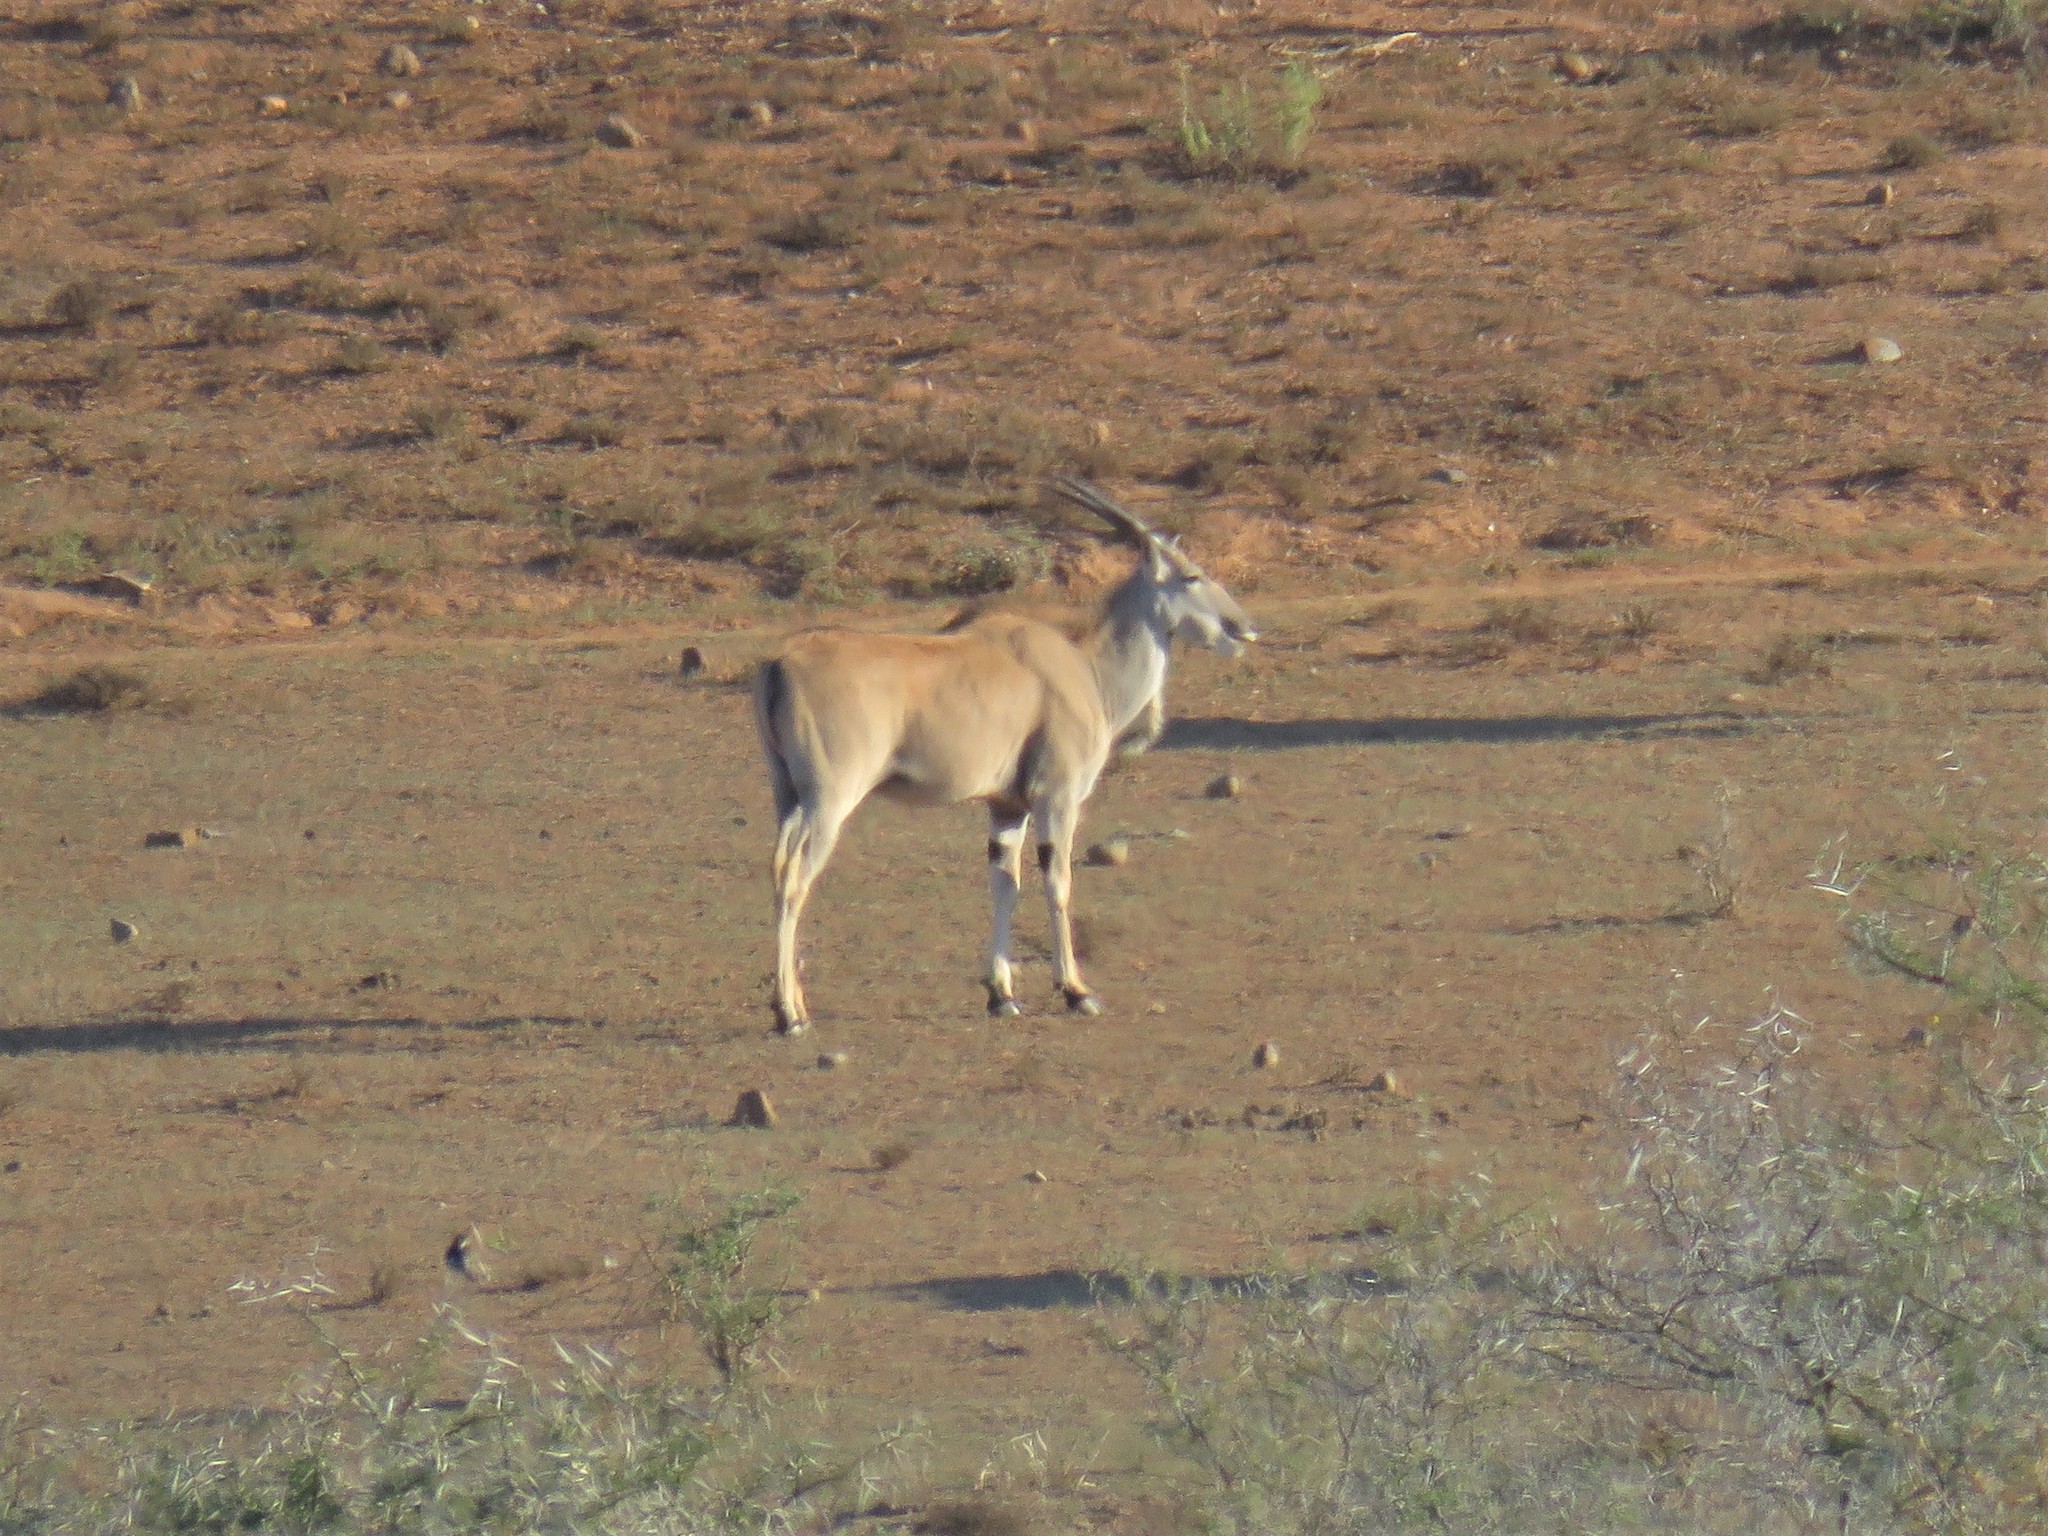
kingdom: Animalia
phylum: Chordata
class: Mammalia
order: Artiodactyla
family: Bovidae
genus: Taurotragus
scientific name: Taurotragus oryx
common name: Common eland
